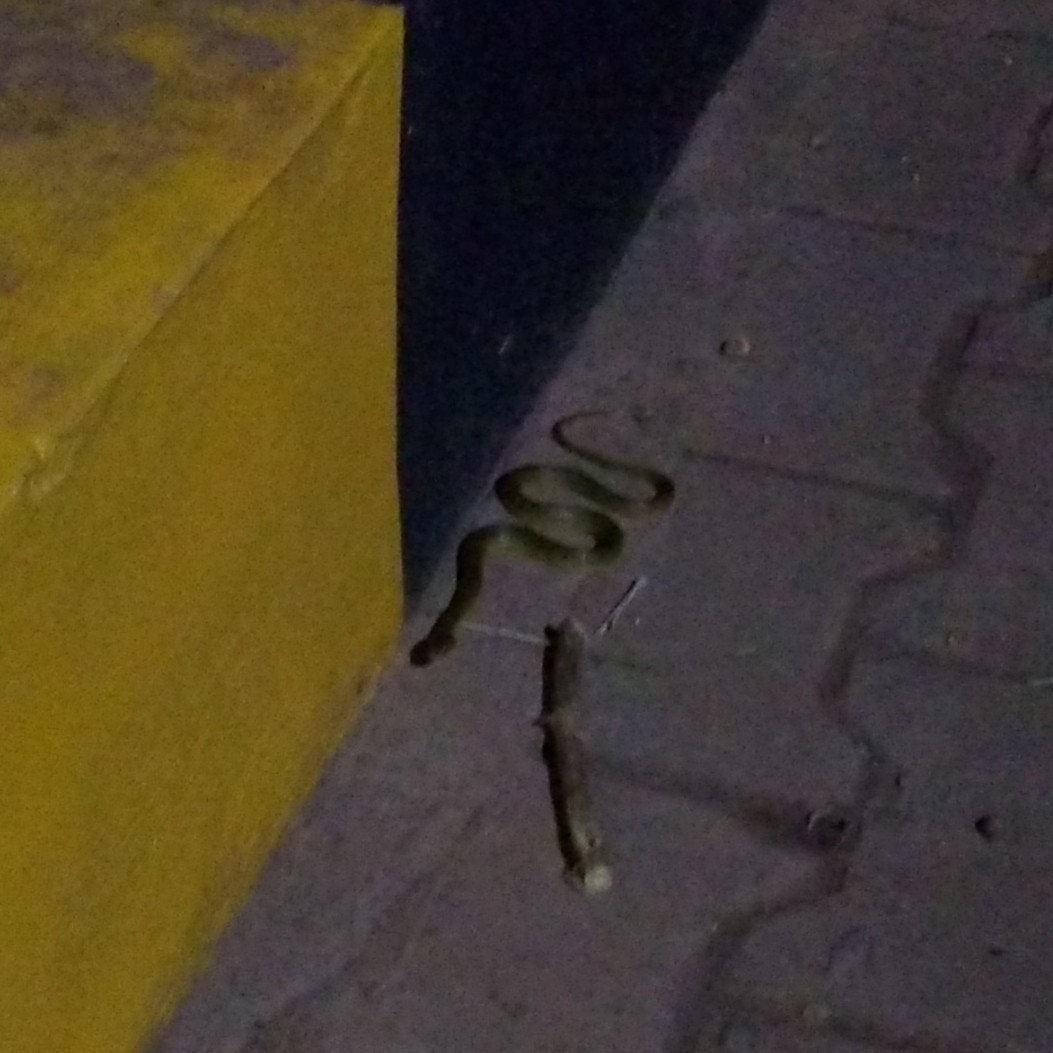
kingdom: Animalia
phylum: Chordata
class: Squamata
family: Colubridae
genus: Fowlea
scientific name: Fowlea piscator
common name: Asiatic water snake
